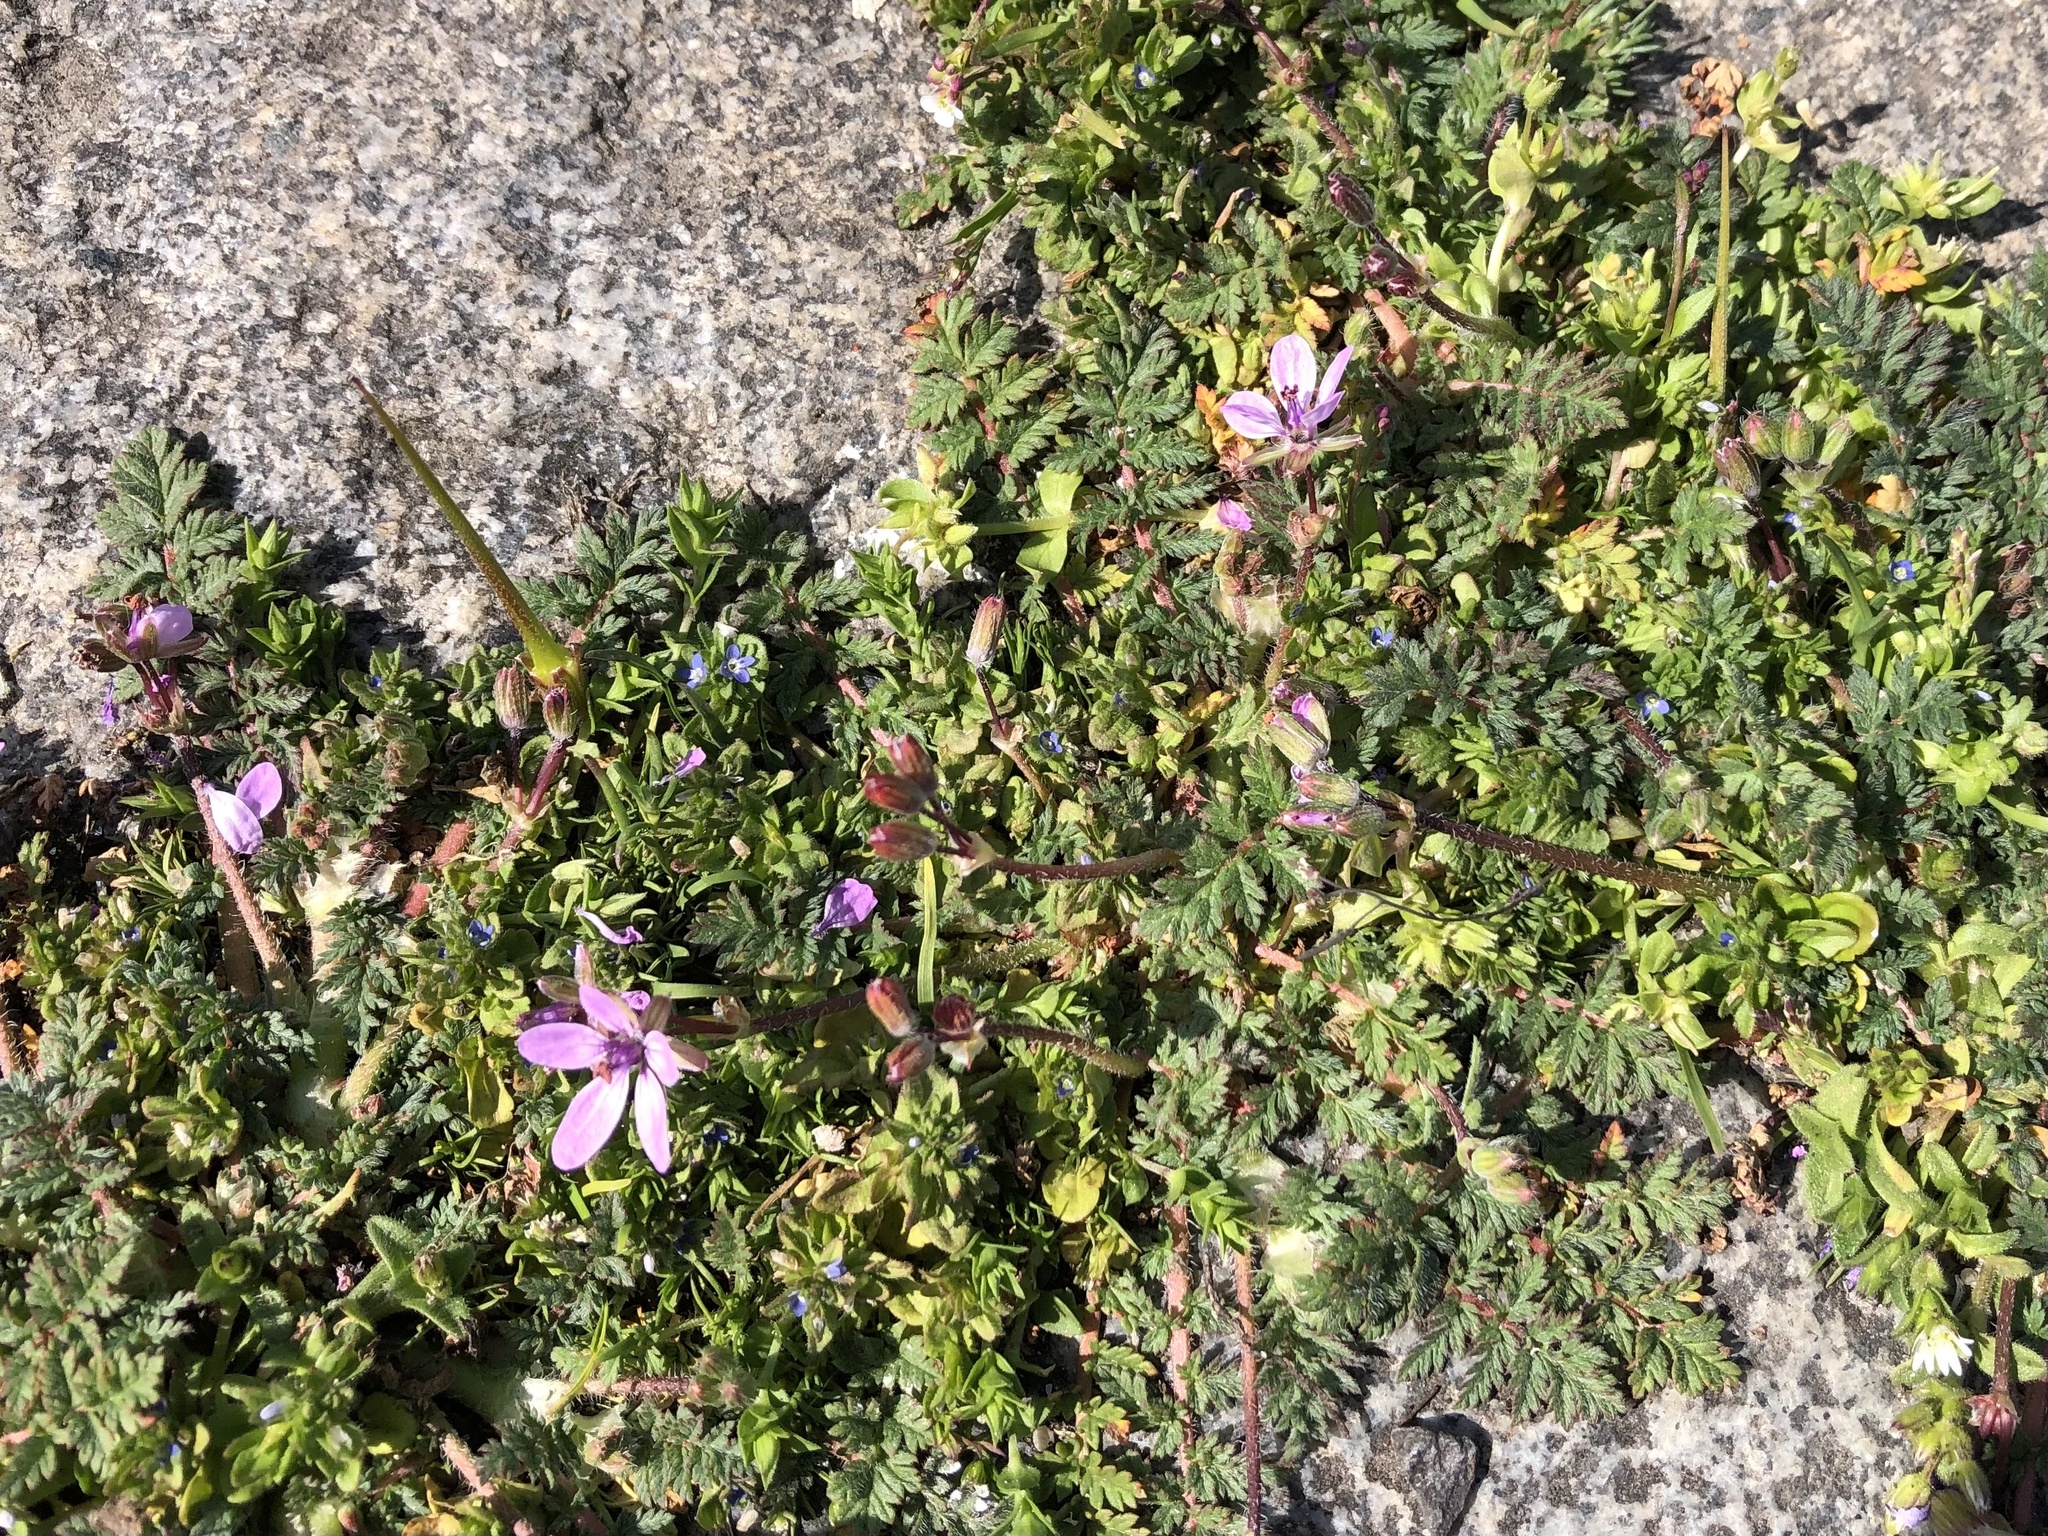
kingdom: Plantae
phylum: Tracheophyta
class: Magnoliopsida
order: Geraniales
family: Geraniaceae
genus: Erodium
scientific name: Erodium cicutarium
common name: Common stork's-bill
